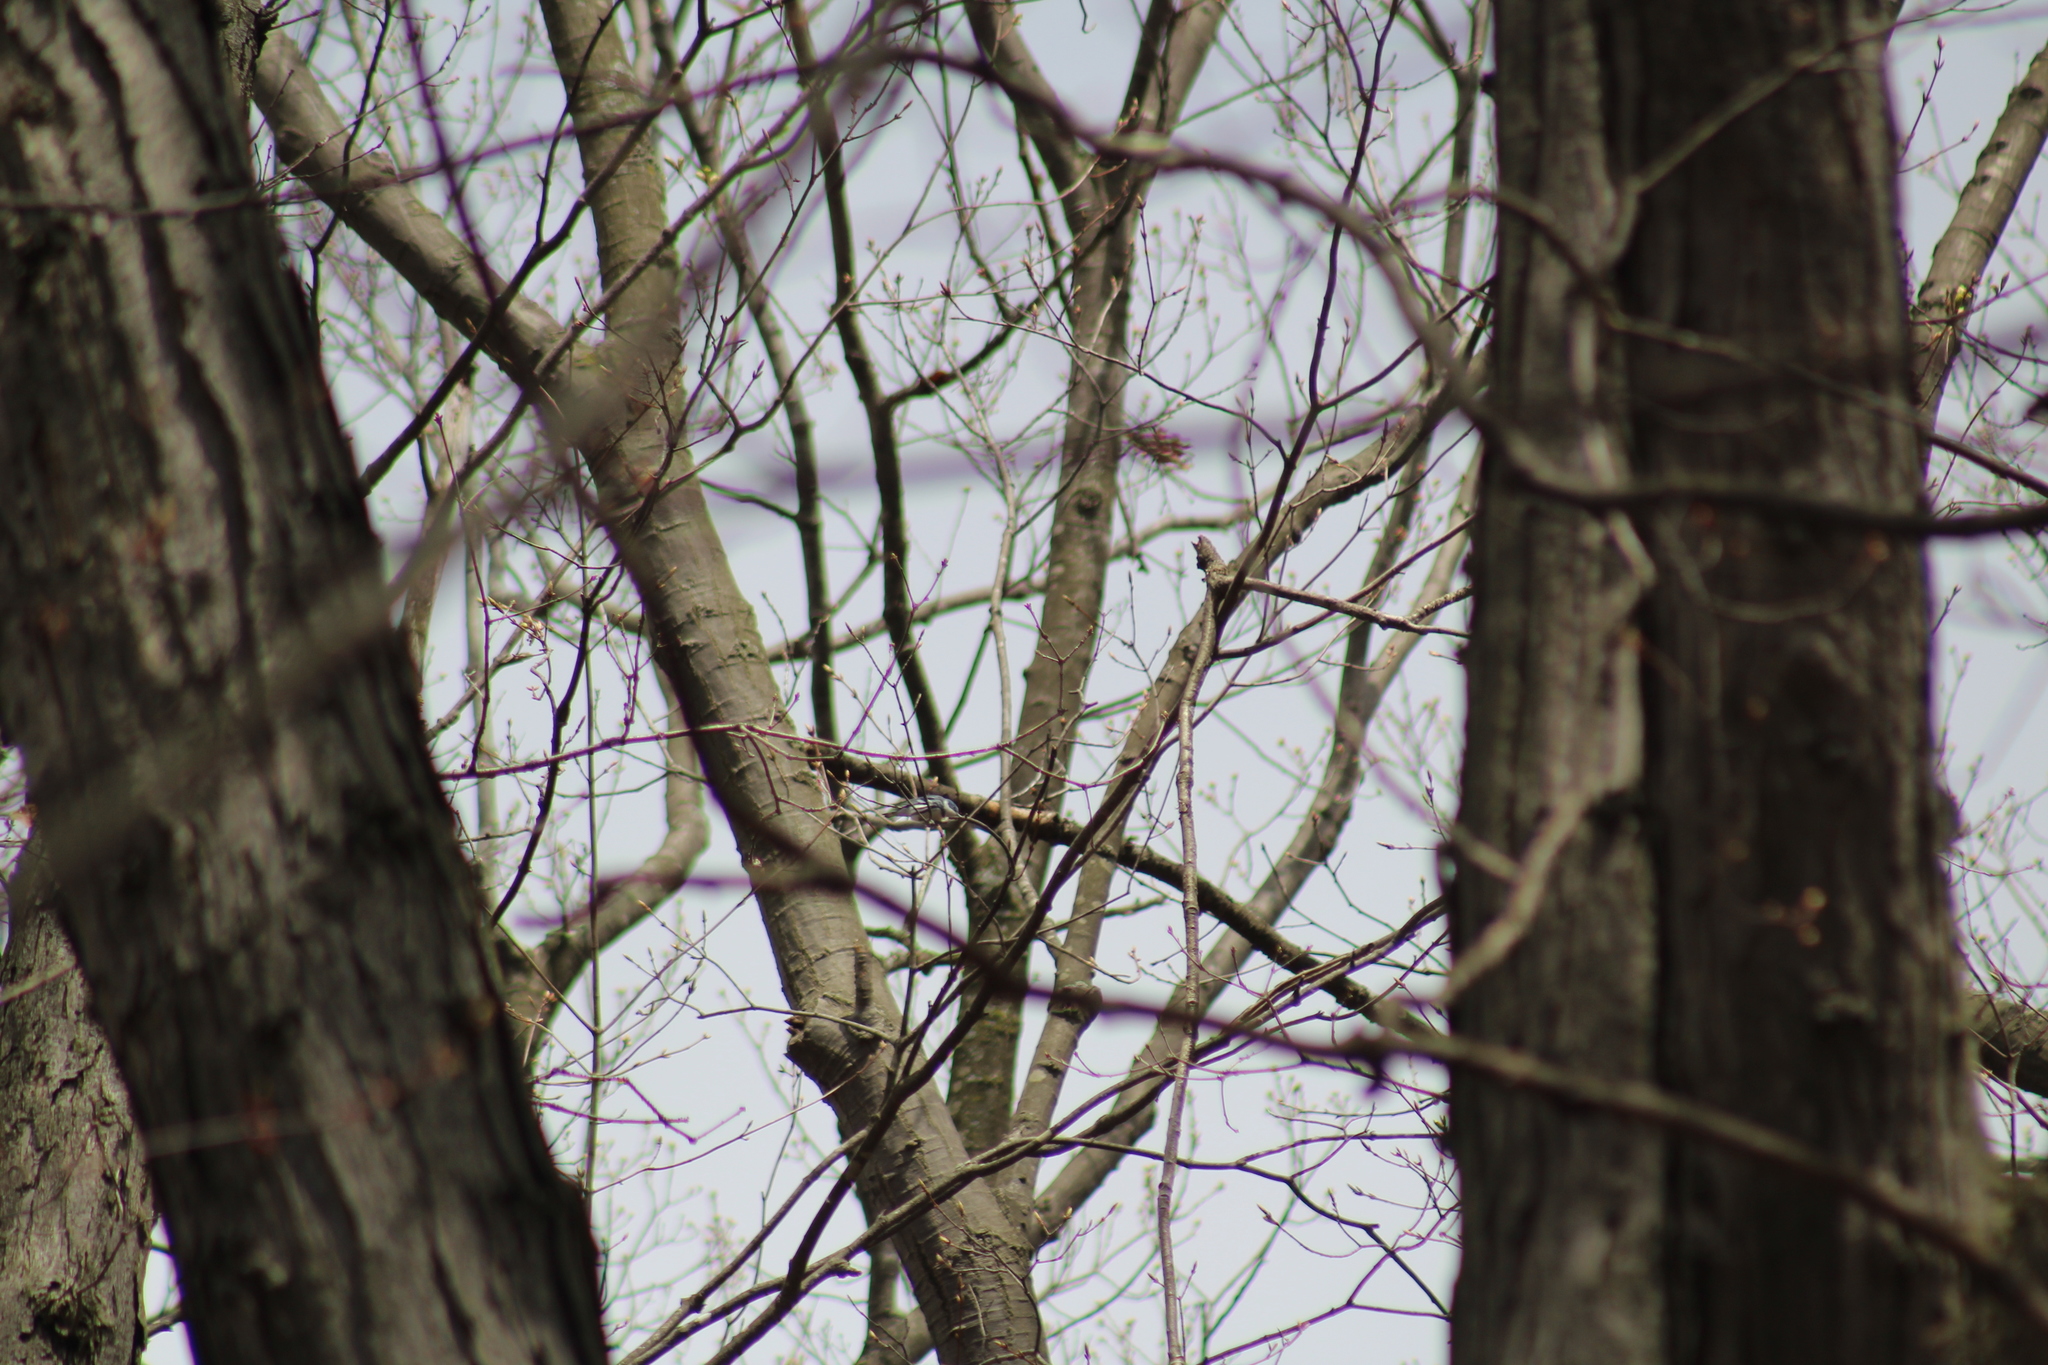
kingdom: Animalia
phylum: Chordata
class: Aves
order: Passeriformes
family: Parulidae
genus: Setophaga
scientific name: Setophaga cerulea
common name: Cerulean warbler
